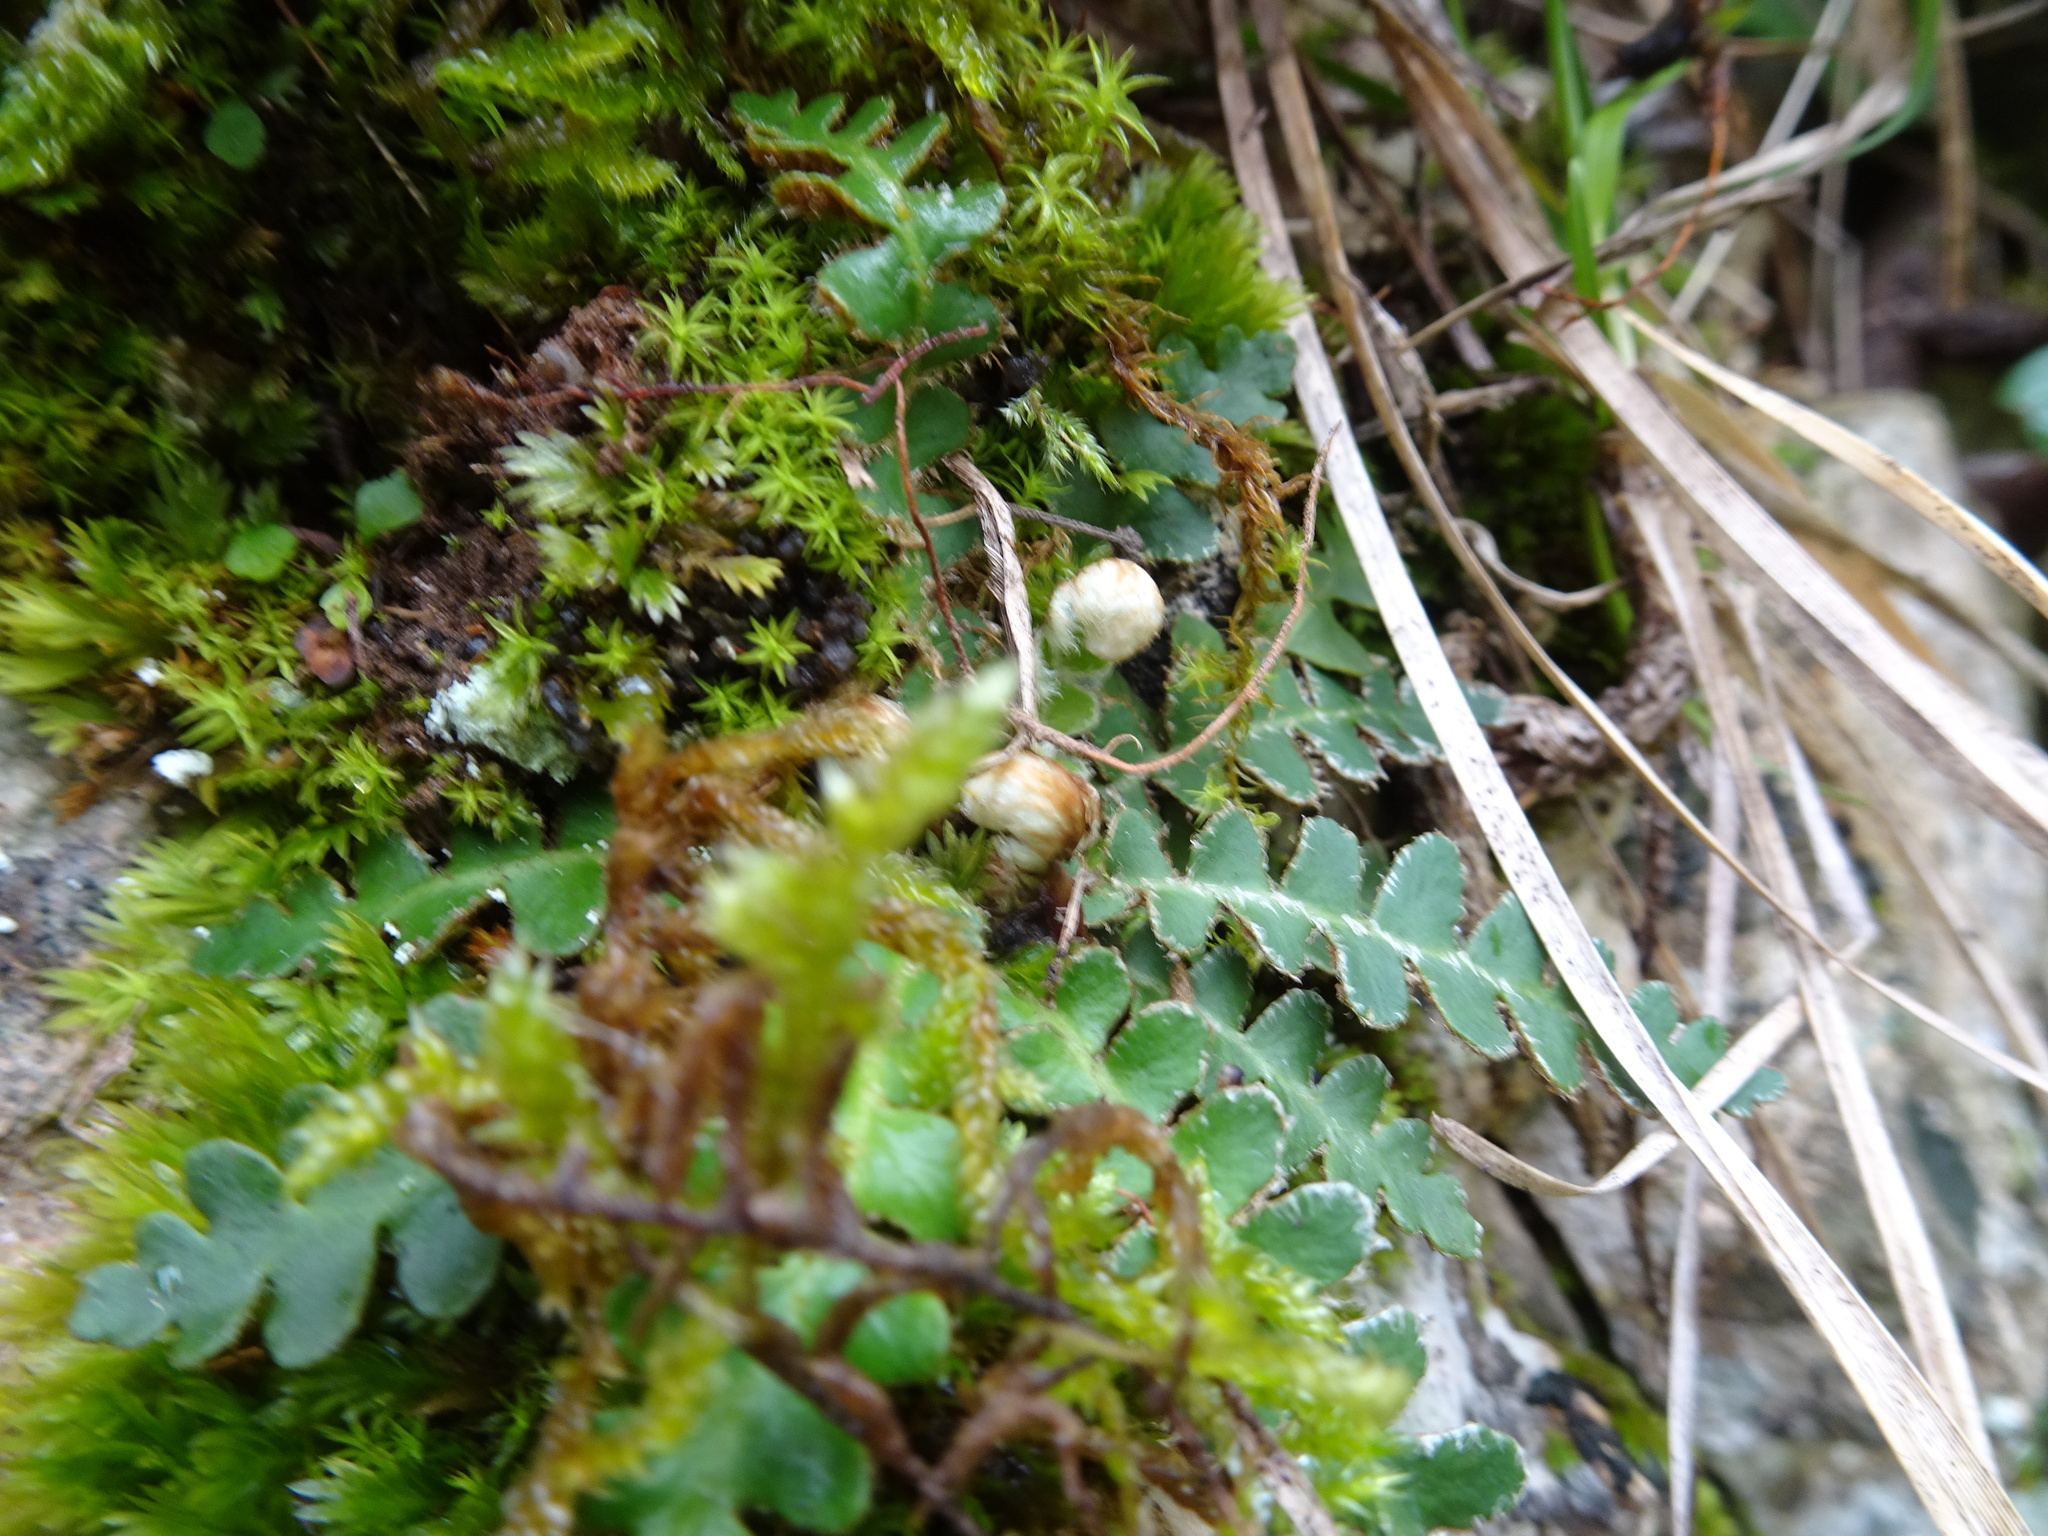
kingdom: Plantae
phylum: Tracheophyta
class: Polypodiopsida
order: Polypodiales
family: Aspleniaceae
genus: Asplenium
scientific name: Asplenium ceterach
